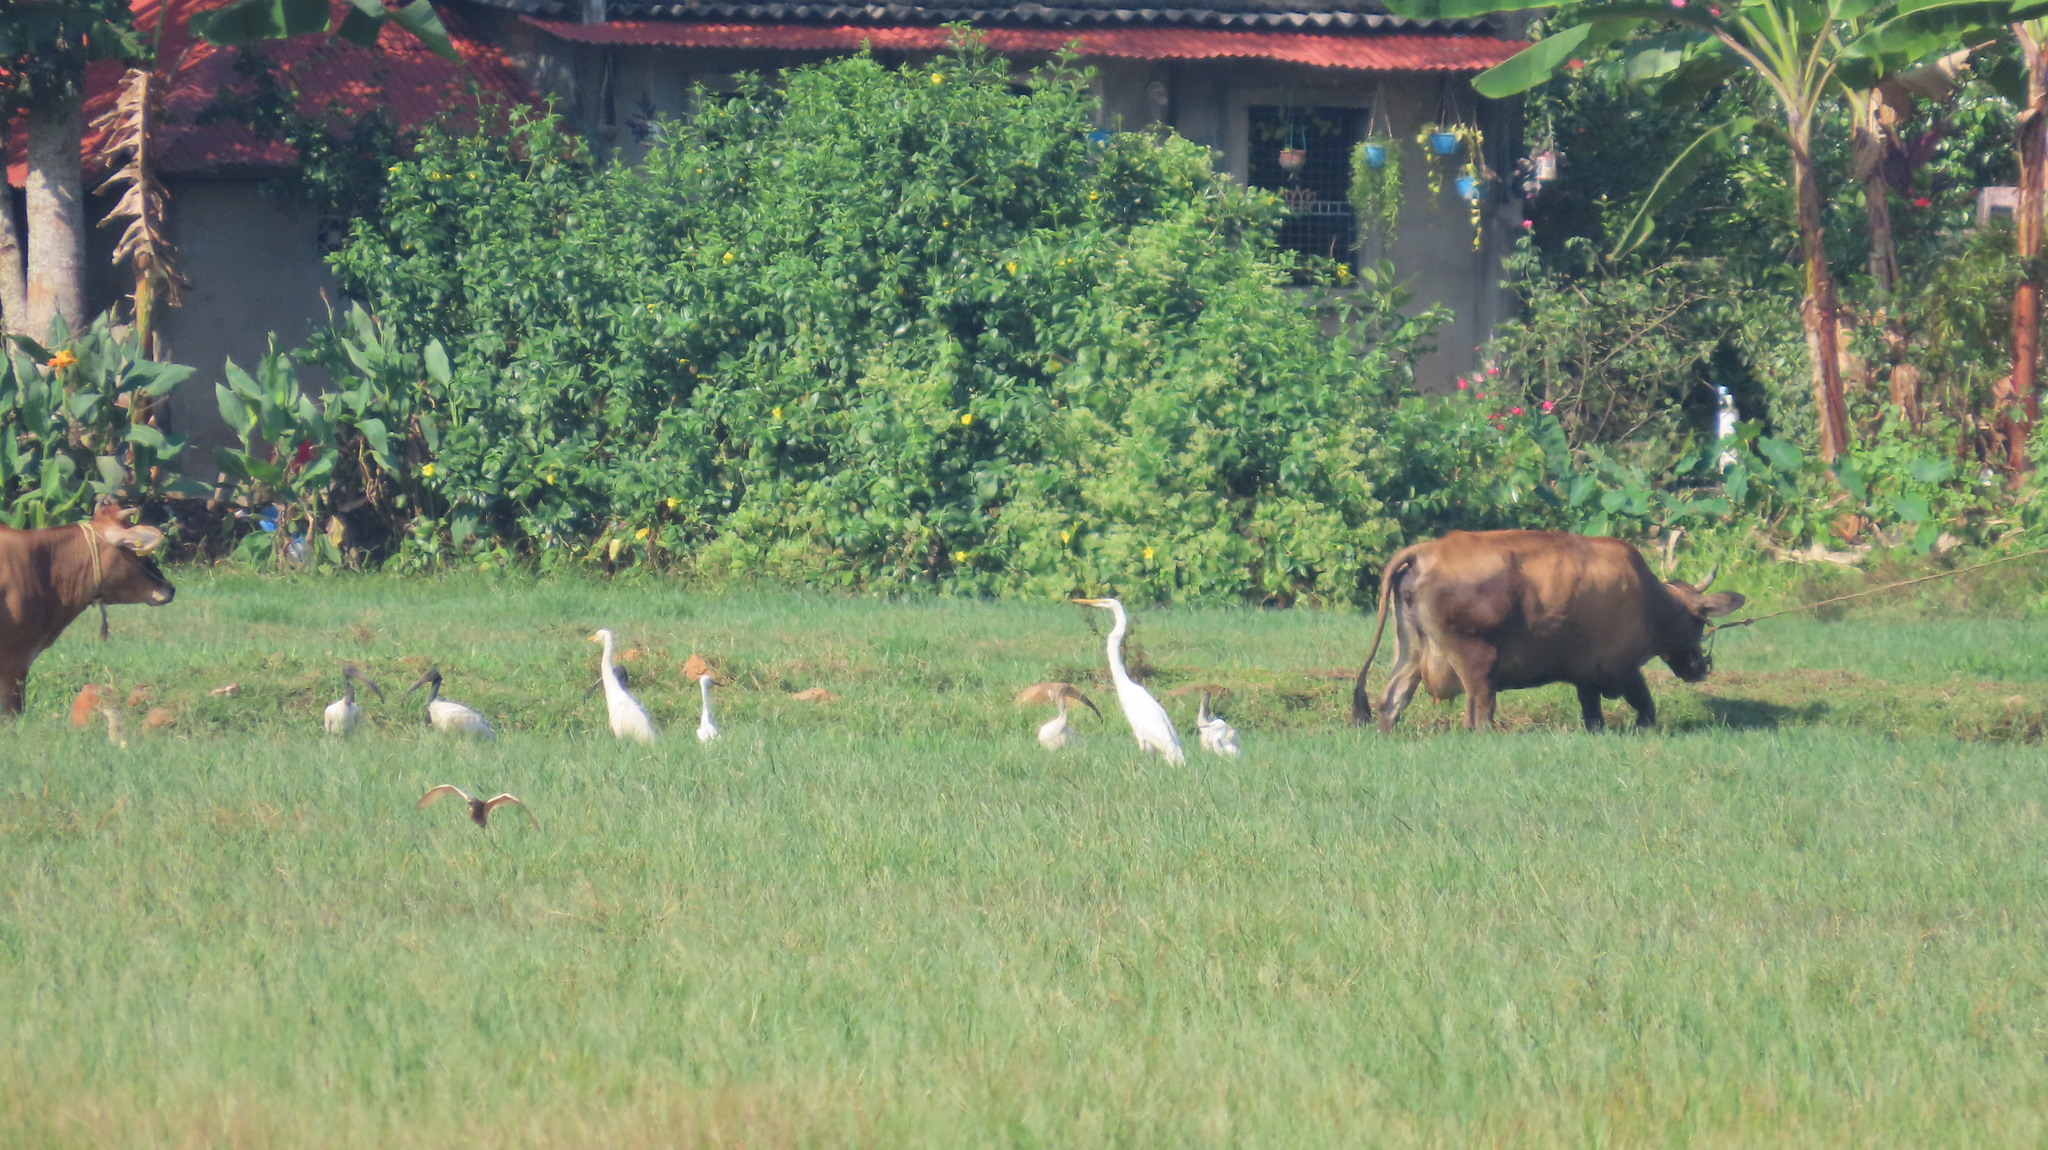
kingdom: Animalia
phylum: Chordata
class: Aves
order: Pelecaniformes
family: Ardeidae
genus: Ardea
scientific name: Ardea alba
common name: Great egret
